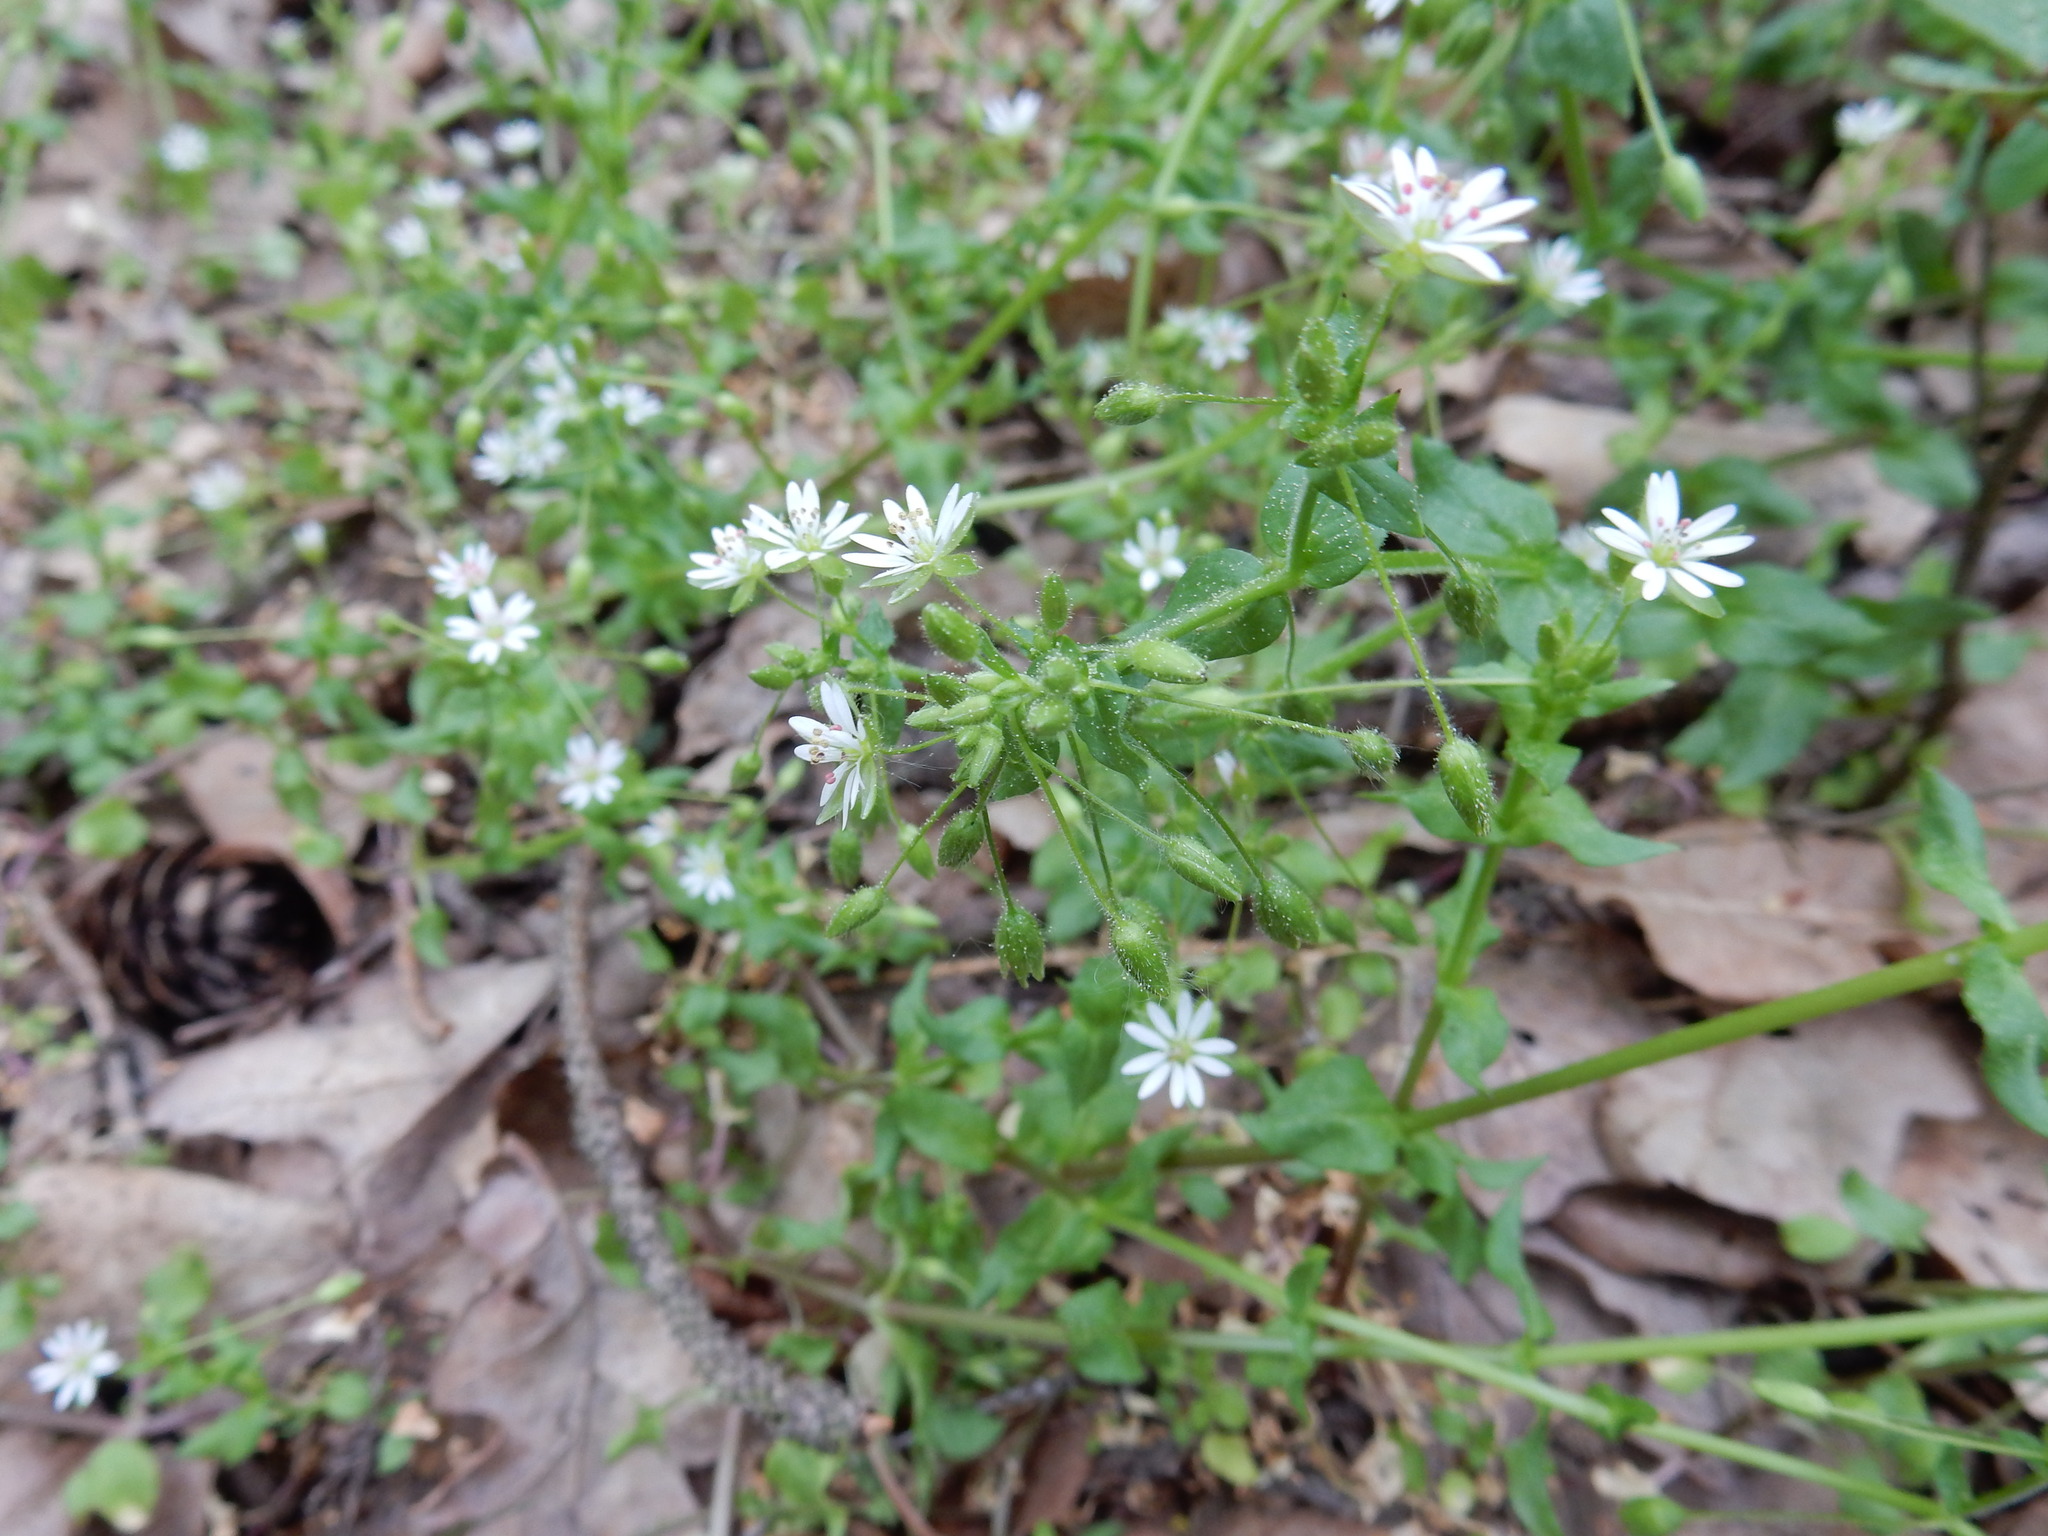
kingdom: Plantae
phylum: Tracheophyta
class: Magnoliopsida
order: Caryophyllales
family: Caryophyllaceae
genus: Stellaria
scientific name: Stellaria media
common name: Common chickweed
